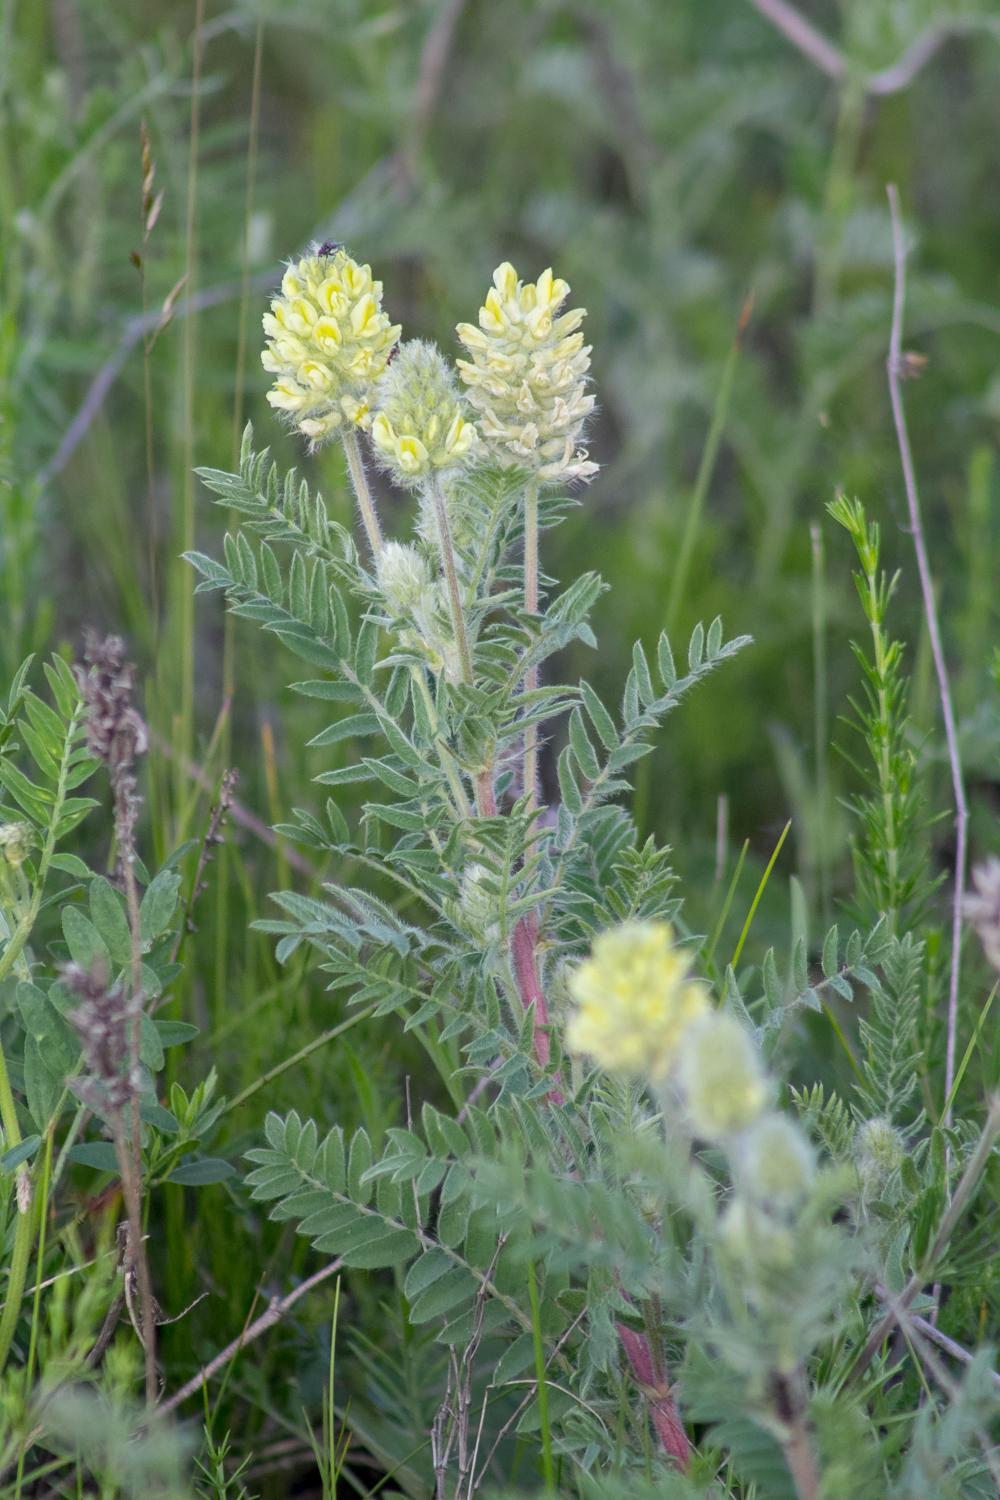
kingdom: Plantae
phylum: Tracheophyta
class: Magnoliopsida
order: Fabales
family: Fabaceae
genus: Oxytropis
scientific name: Oxytropis pilosa
